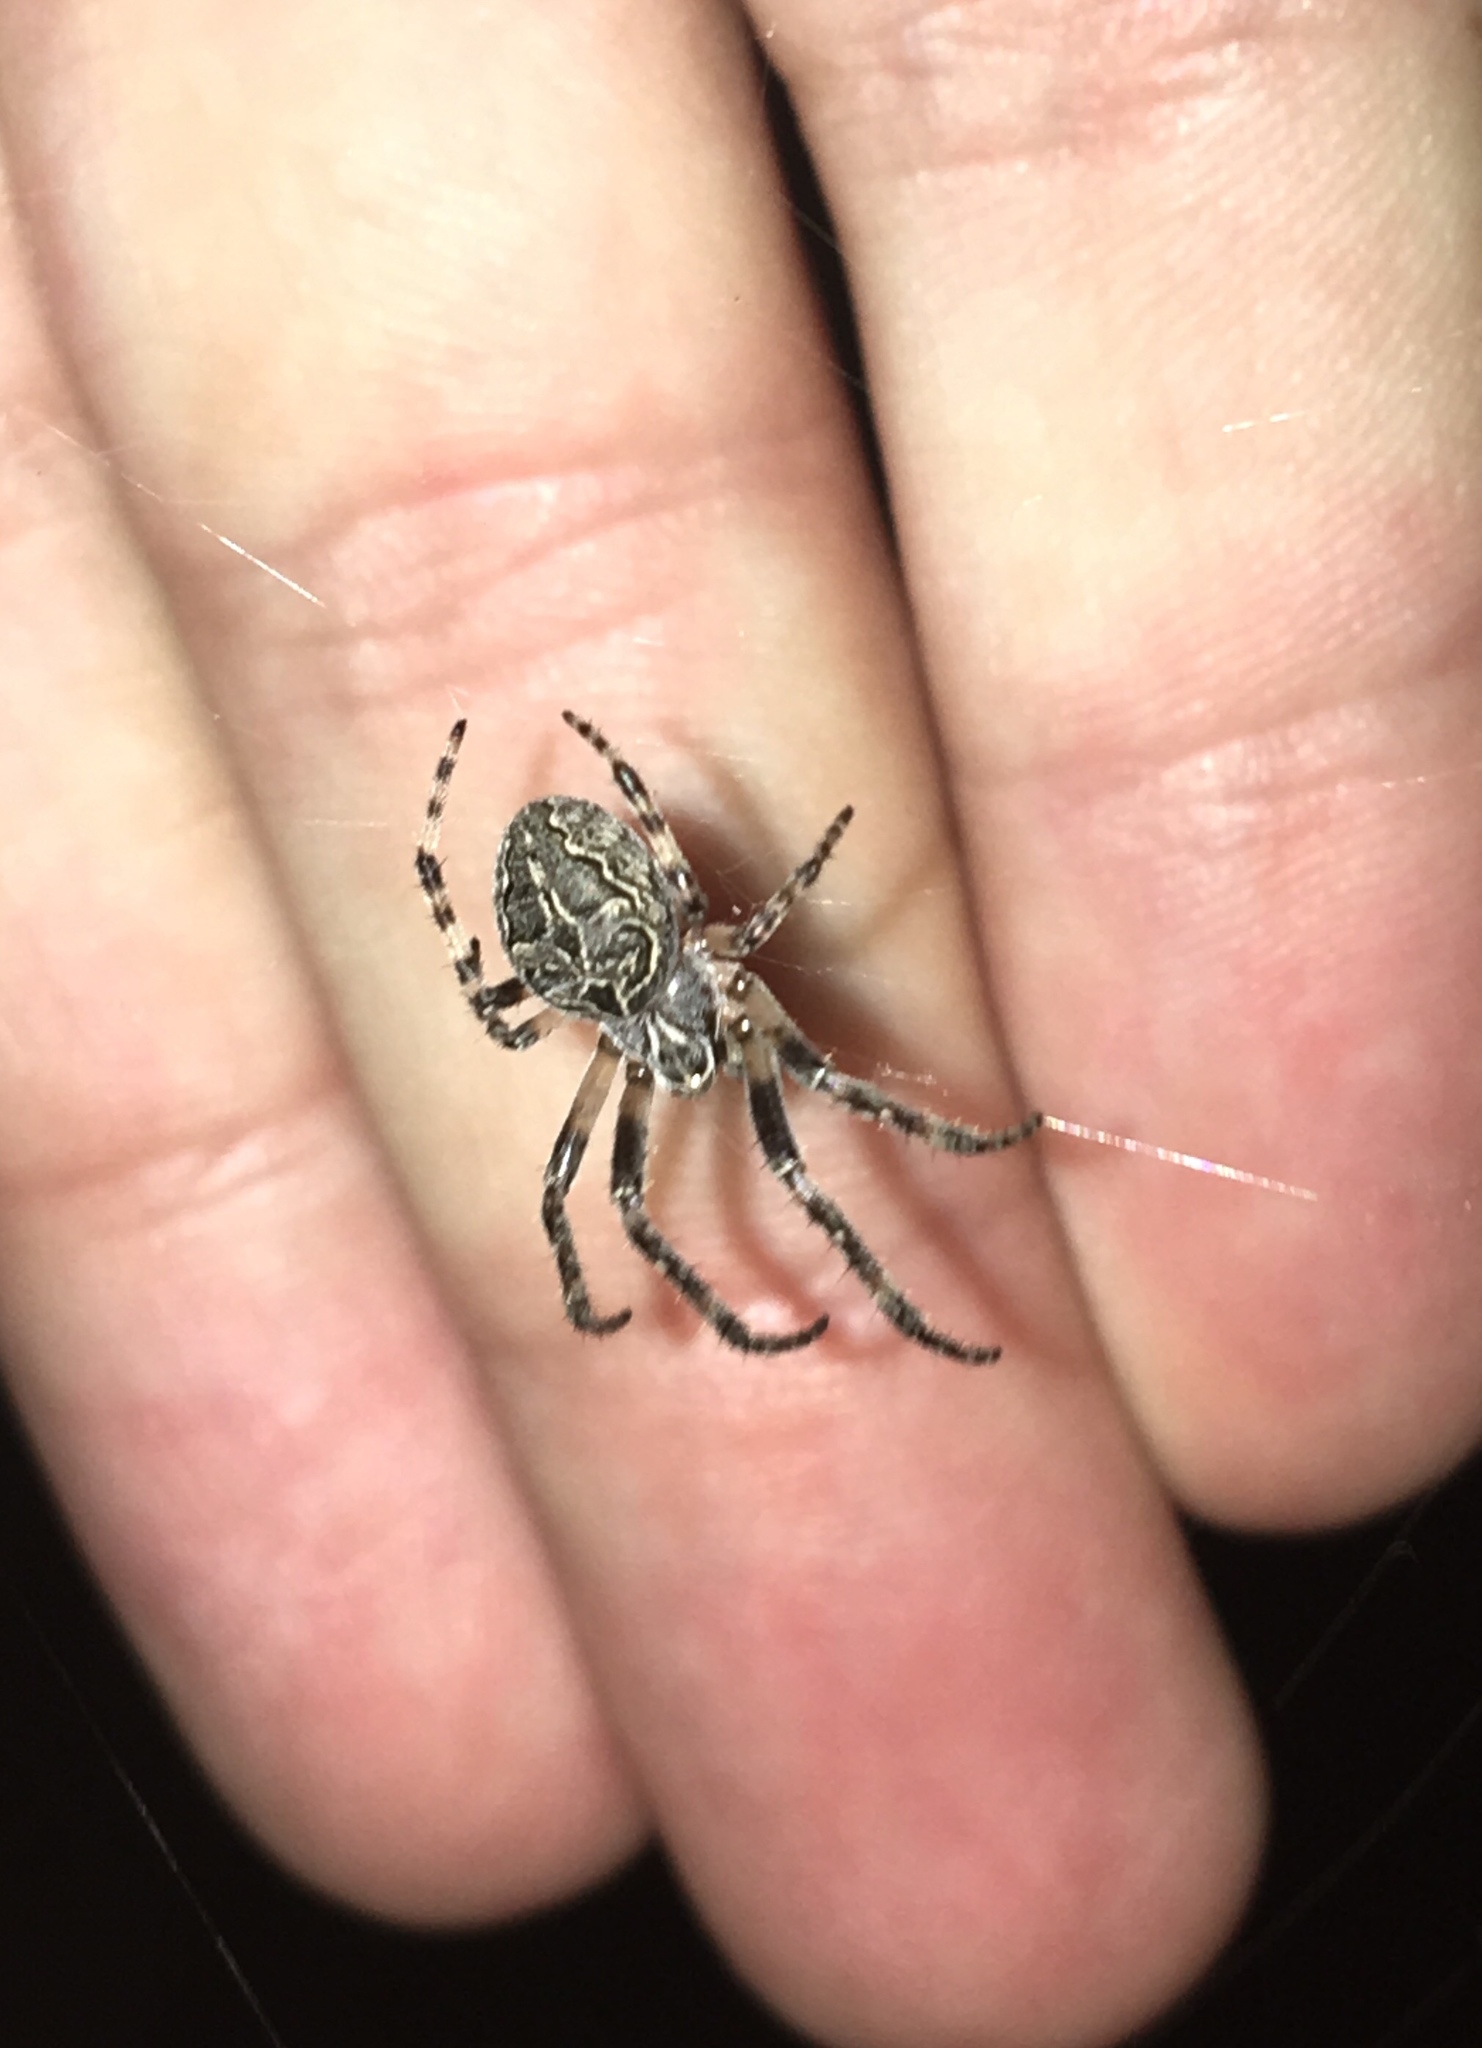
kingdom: Animalia
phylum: Arthropoda
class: Arachnida
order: Araneae
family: Araneidae
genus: Larinioides
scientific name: Larinioides sclopetarius
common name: Bridge orbweaver
